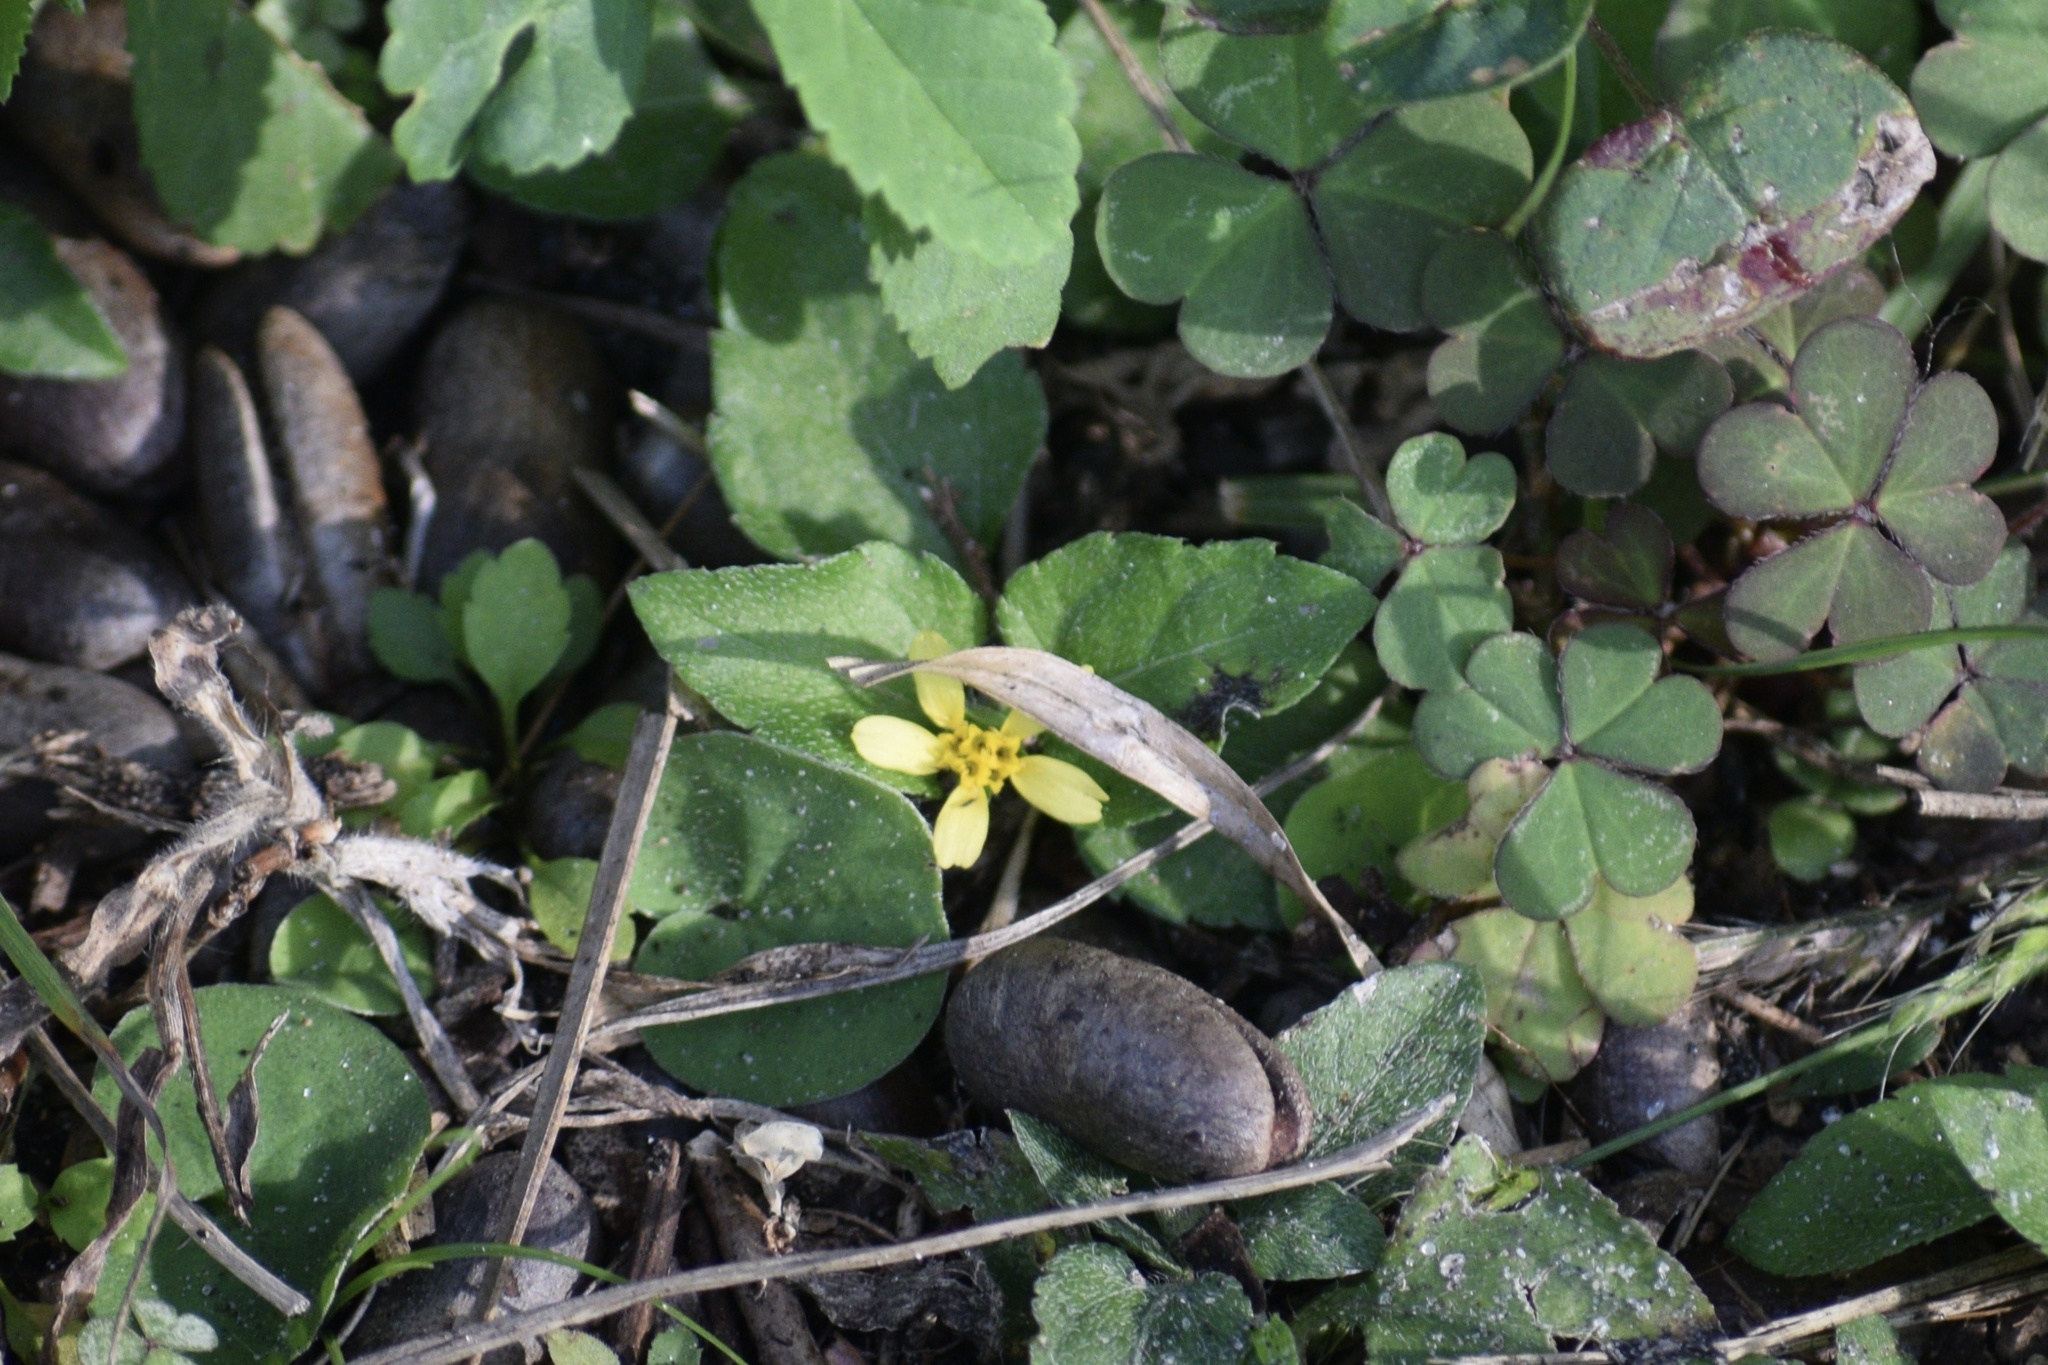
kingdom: Plantae
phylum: Tracheophyta
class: Magnoliopsida
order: Asterales
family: Asteraceae
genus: Calyptocarpus
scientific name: Calyptocarpus vialis
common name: Straggler daisy
